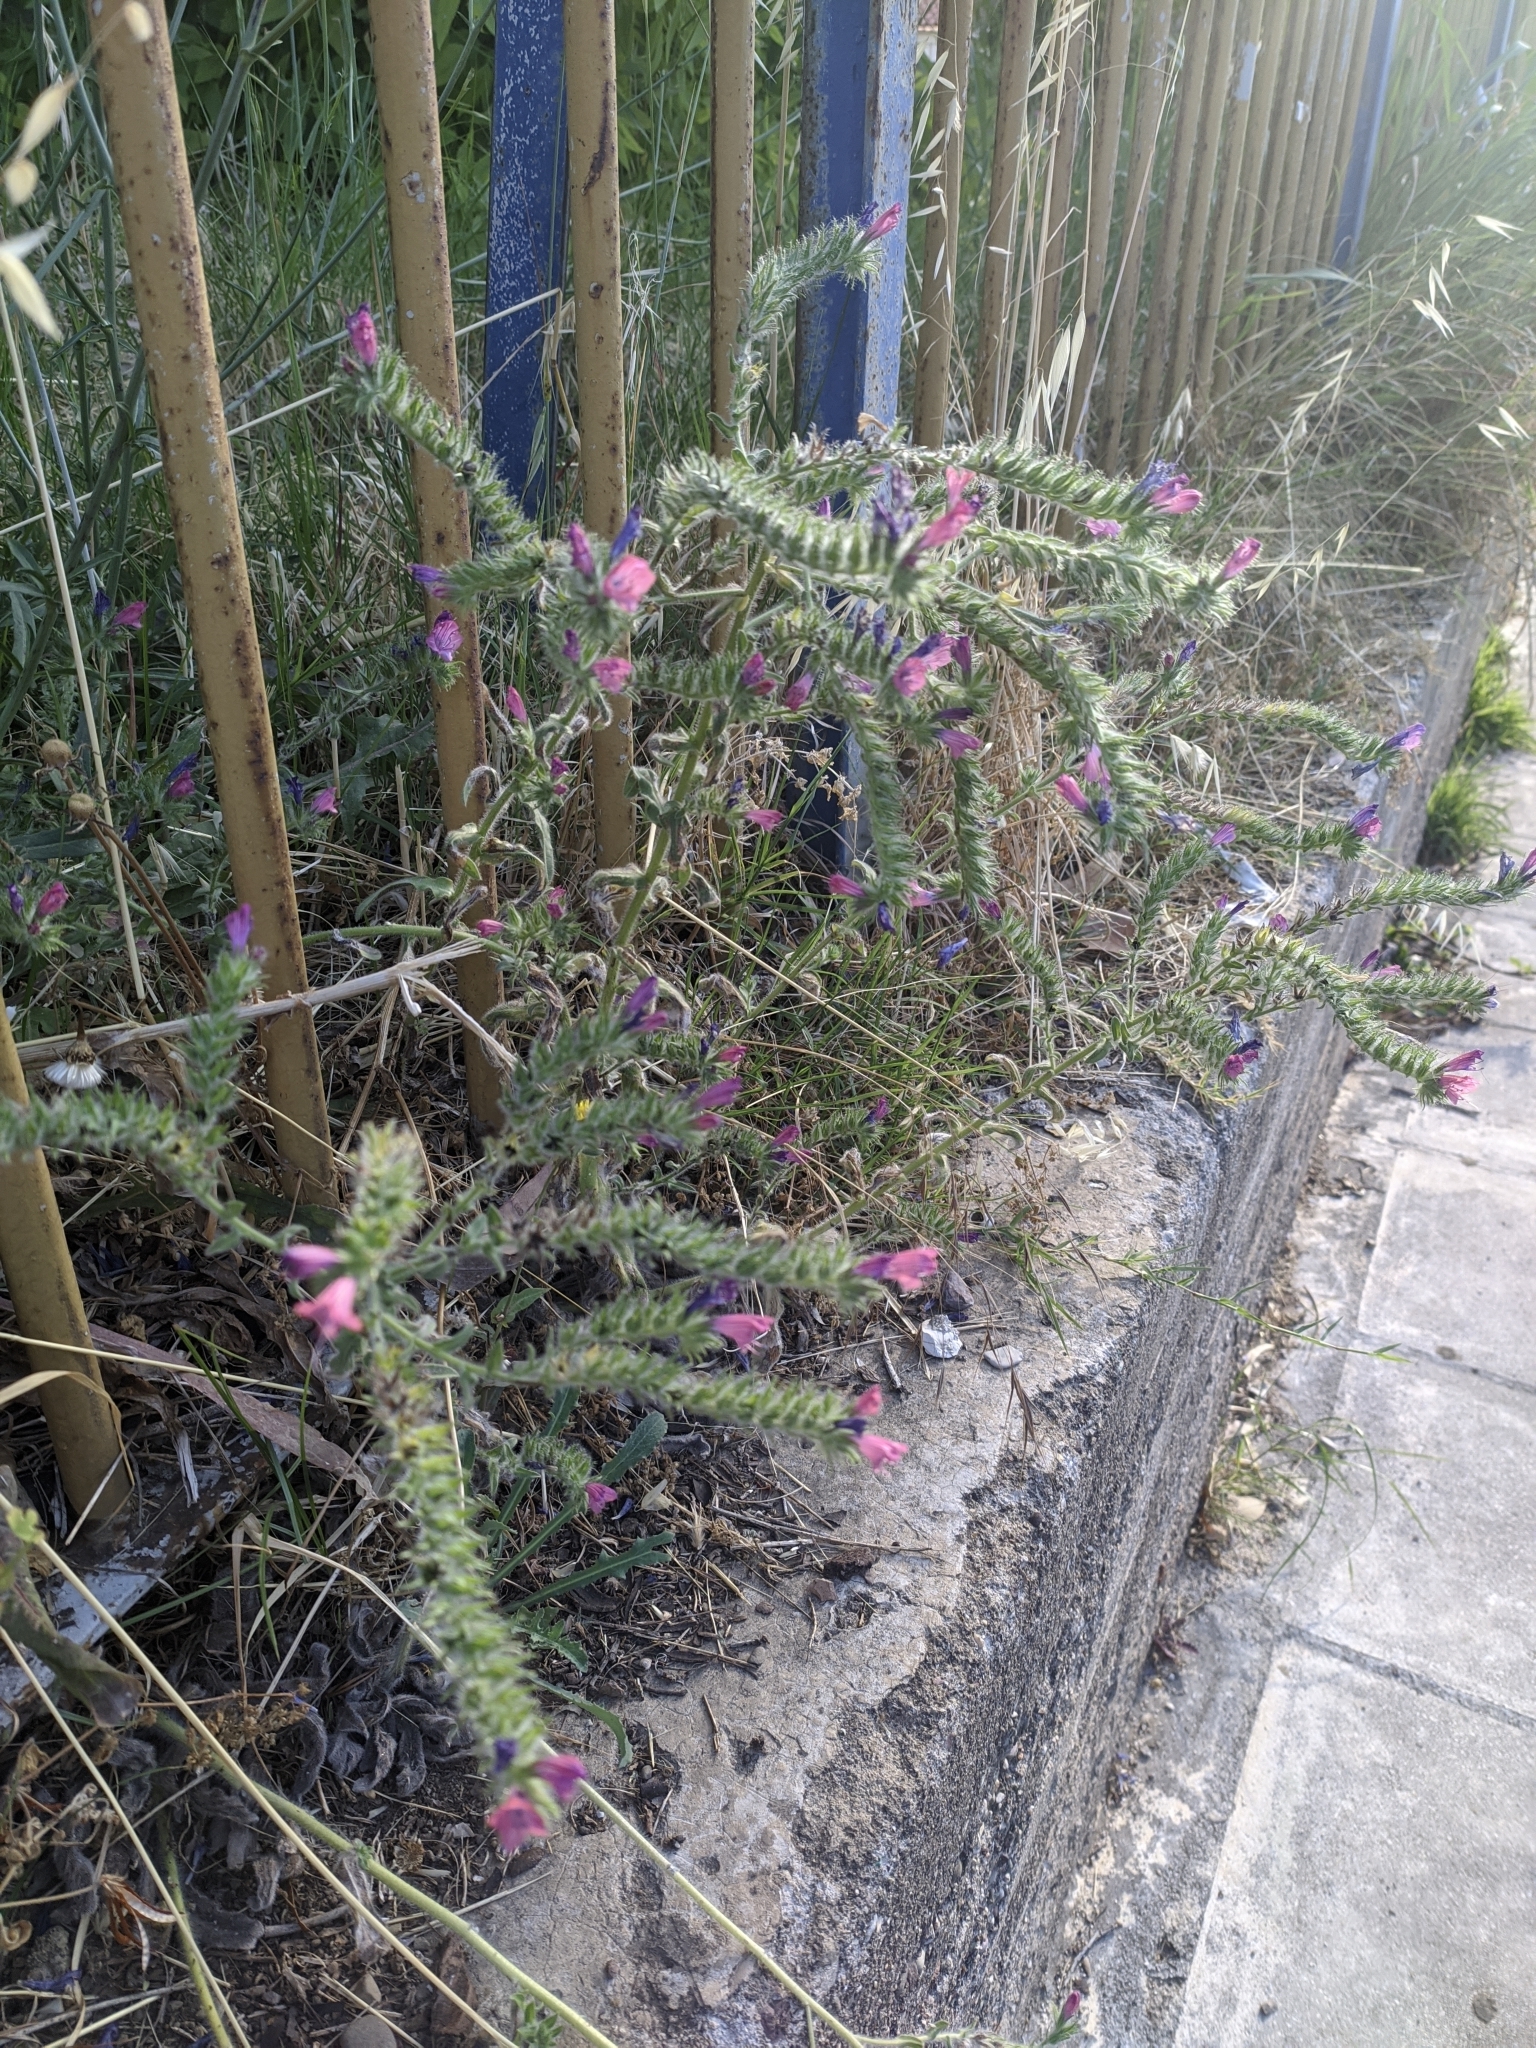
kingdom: Plantae
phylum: Tracheophyta
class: Magnoliopsida
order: Boraginales
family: Boraginaceae
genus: Echium
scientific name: Echium plantagineum
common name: Purple viper's-bugloss
